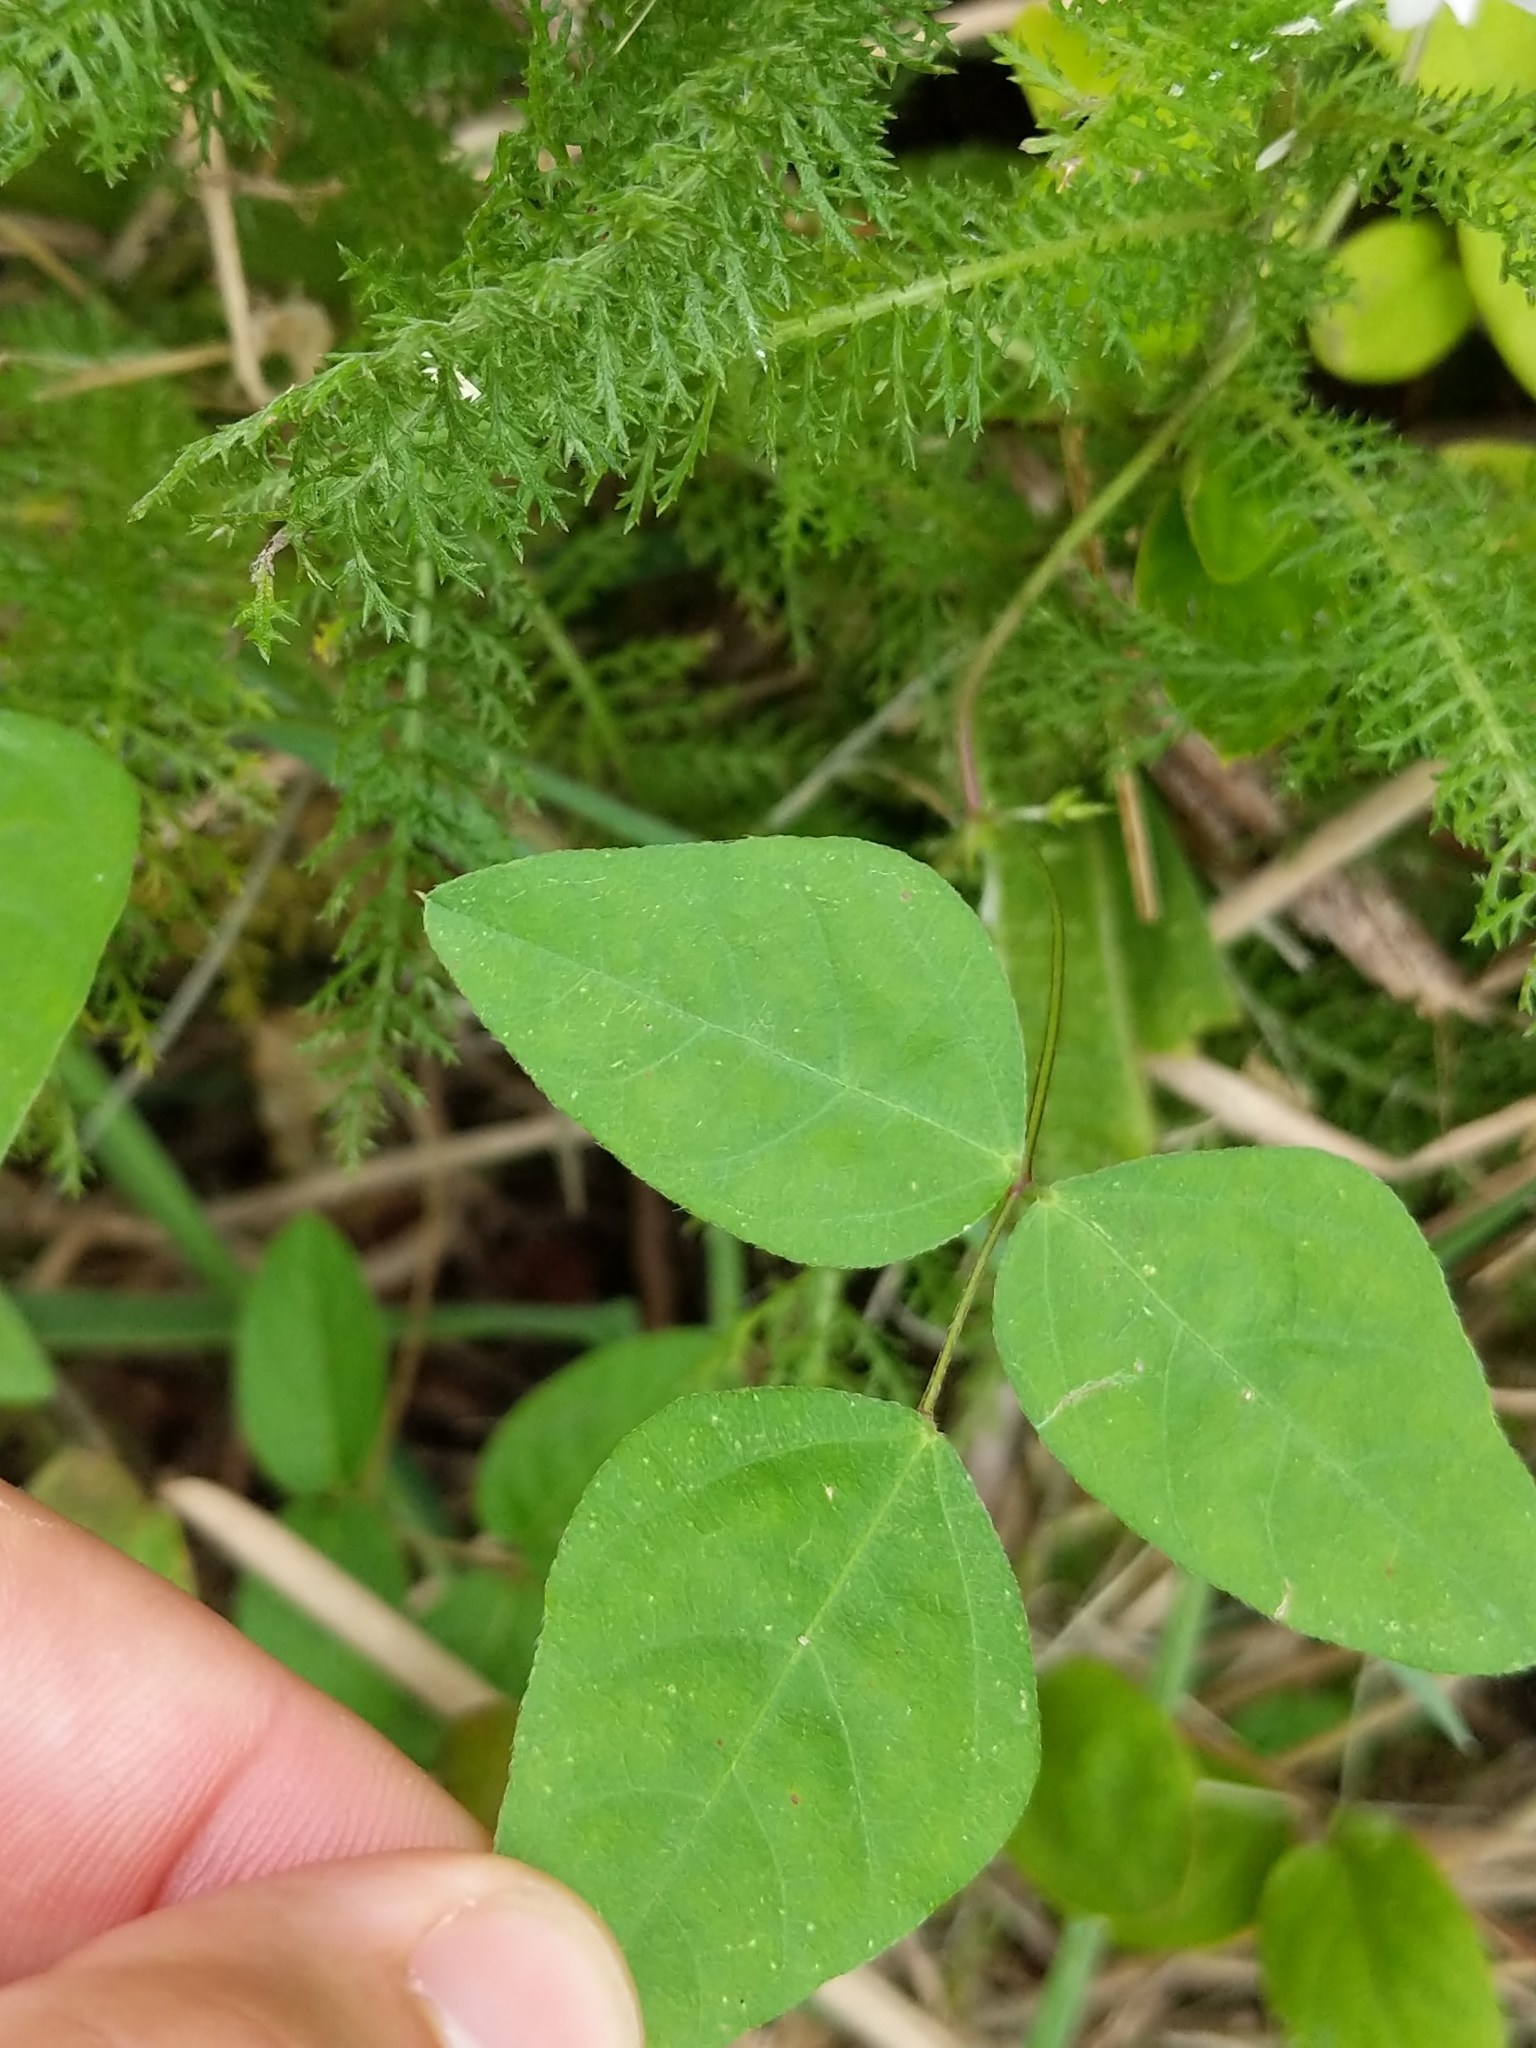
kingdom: Plantae
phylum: Tracheophyta
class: Magnoliopsida
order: Fabales
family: Fabaceae
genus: Strophostyles
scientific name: Strophostyles helvola
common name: Trailing wild bean
